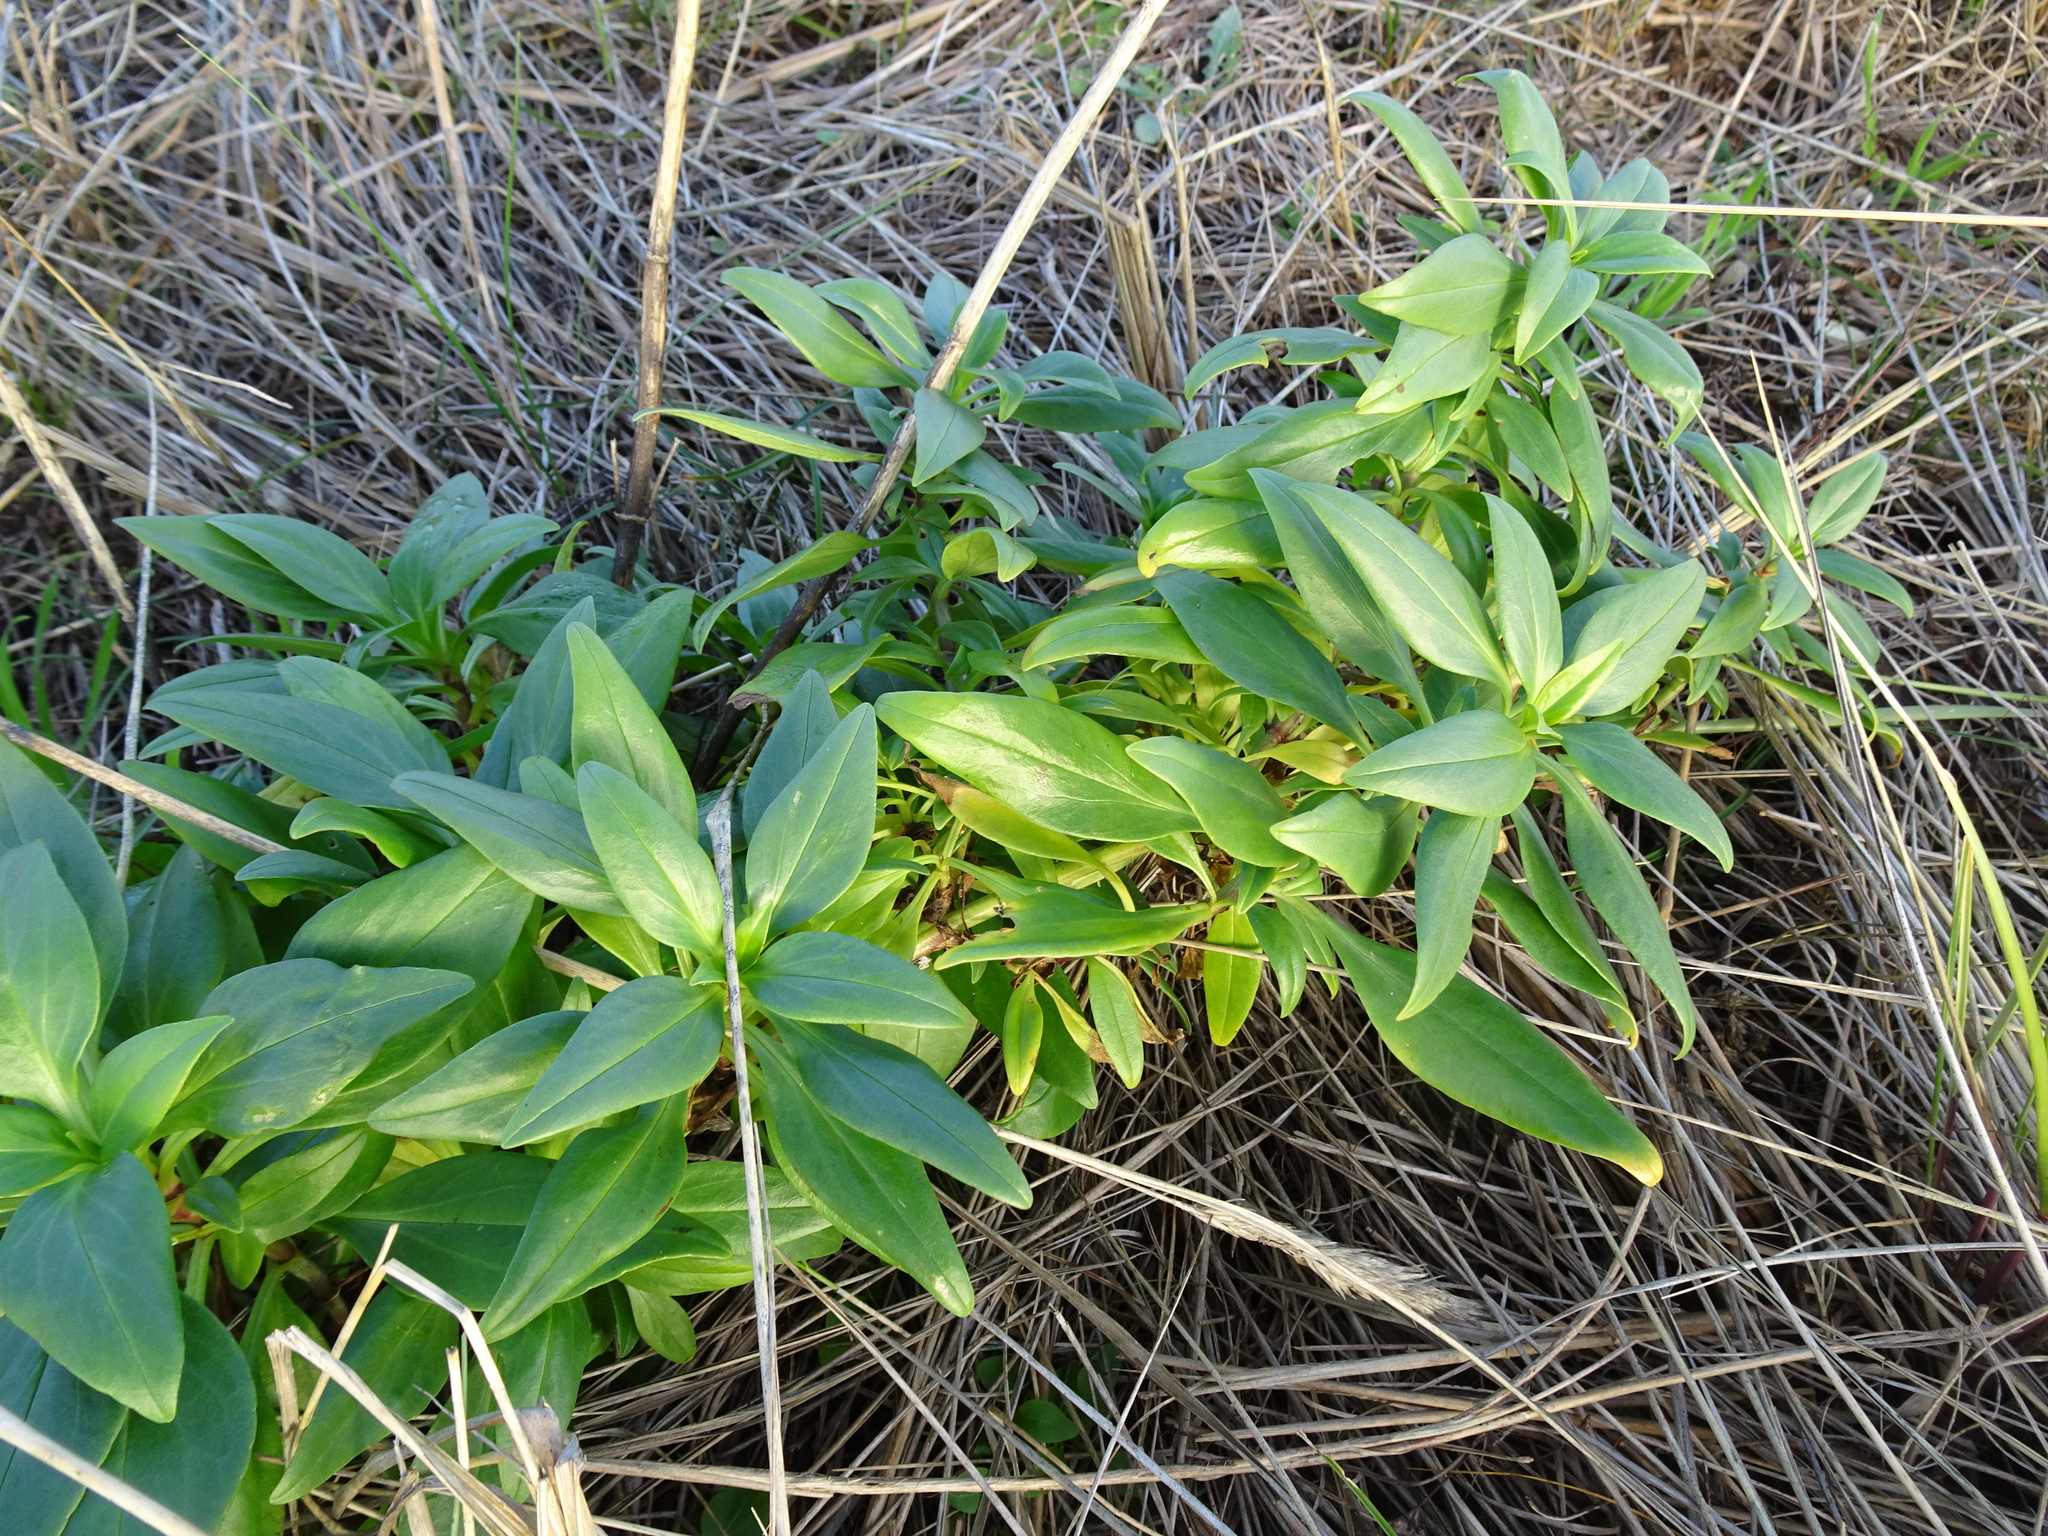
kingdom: Plantae
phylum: Tracheophyta
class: Magnoliopsida
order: Dipsacales
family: Caprifoliaceae
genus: Centranthus
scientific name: Centranthus ruber
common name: Red valerian
